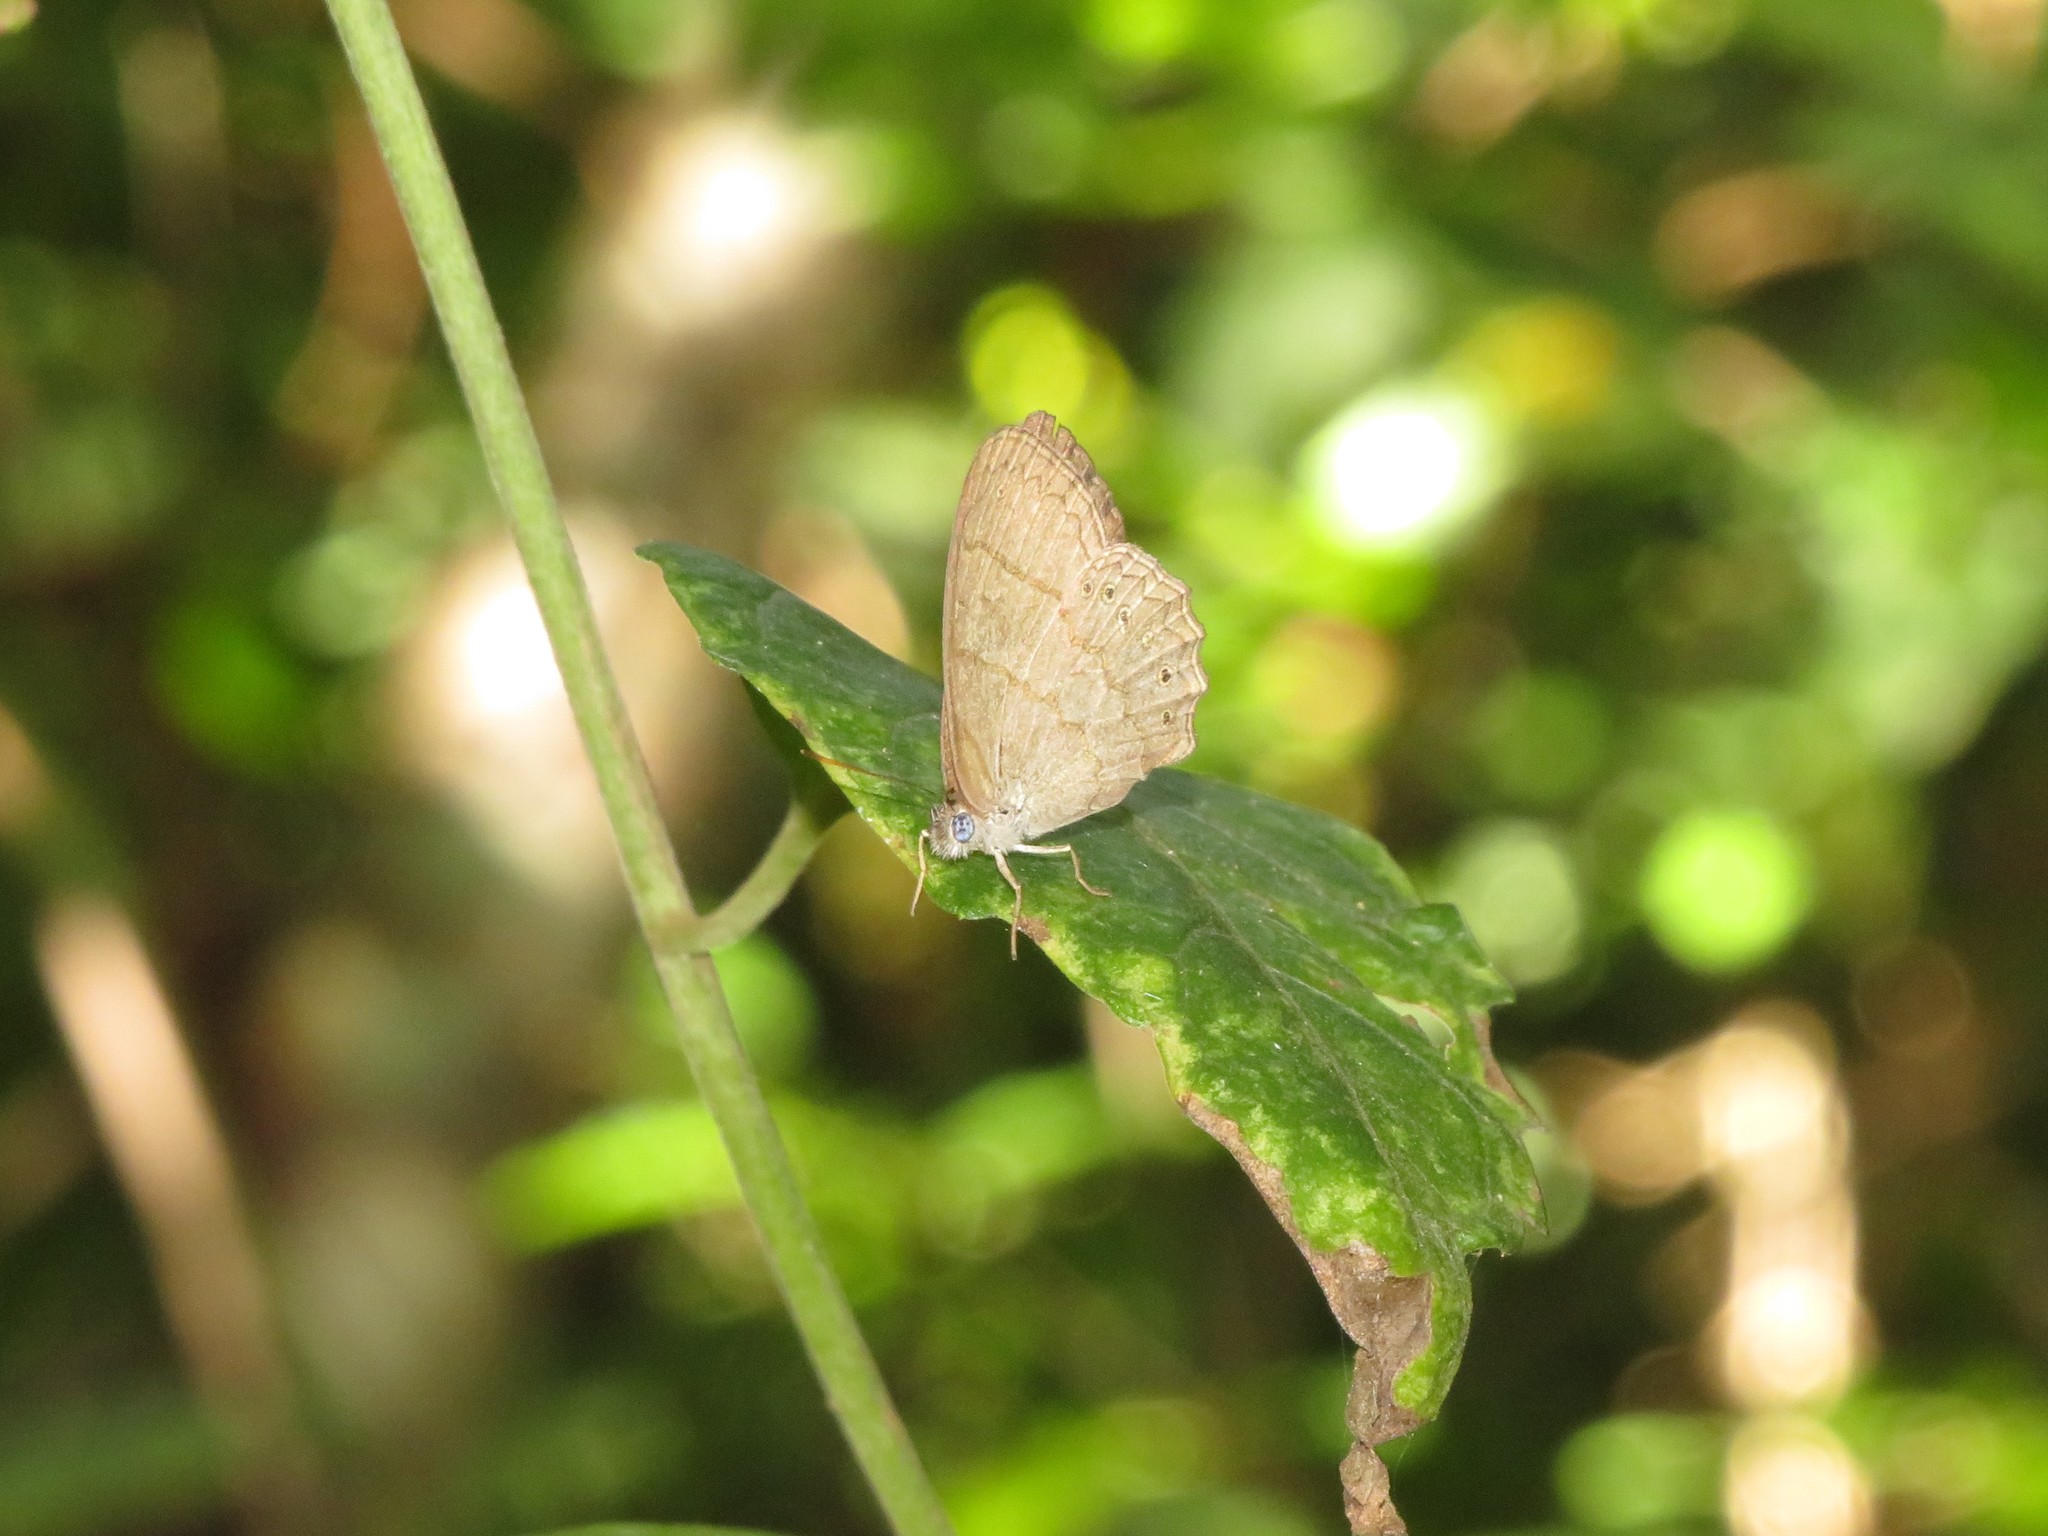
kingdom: Animalia
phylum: Arthropoda
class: Insecta
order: Lepidoptera
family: Nymphalidae
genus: Paryphthimoides
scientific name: Paryphthimoides poltys
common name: Poltys satyr
